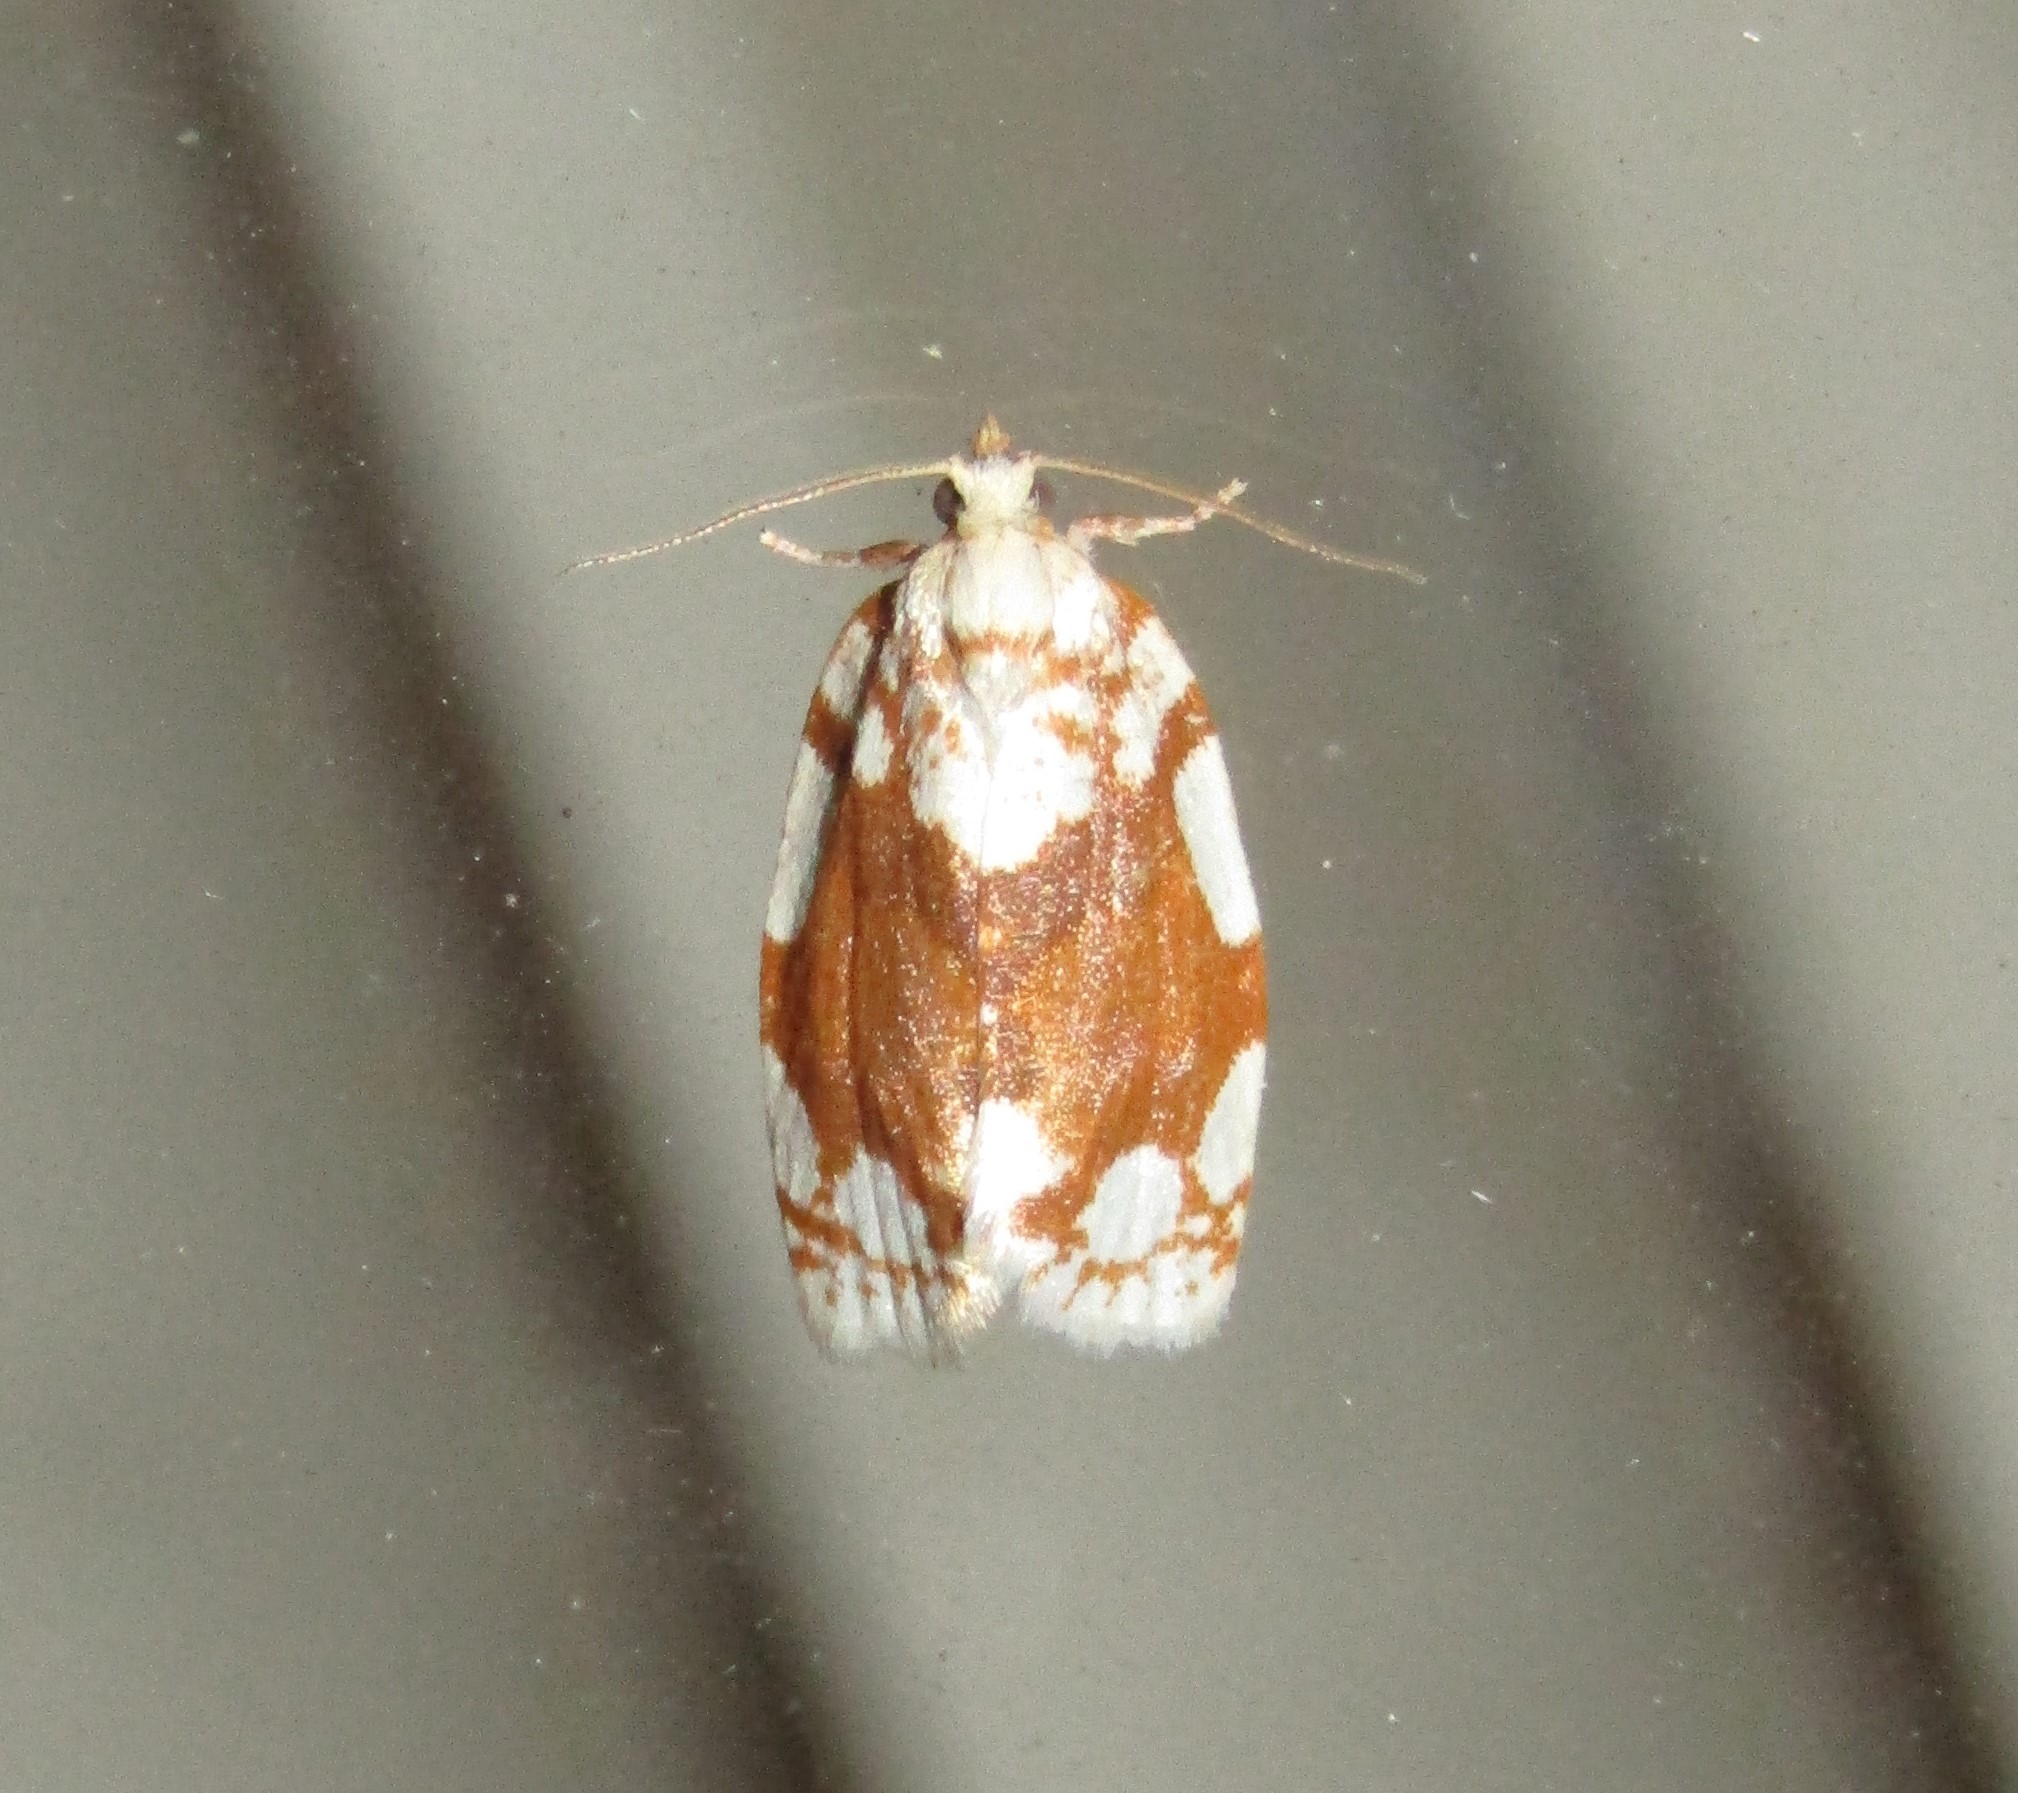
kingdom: Animalia
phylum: Arthropoda
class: Insecta
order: Lepidoptera
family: Tortricidae
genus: Argyrotaenia
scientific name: Argyrotaenia alisellana
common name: White-spotted leafroller moth
